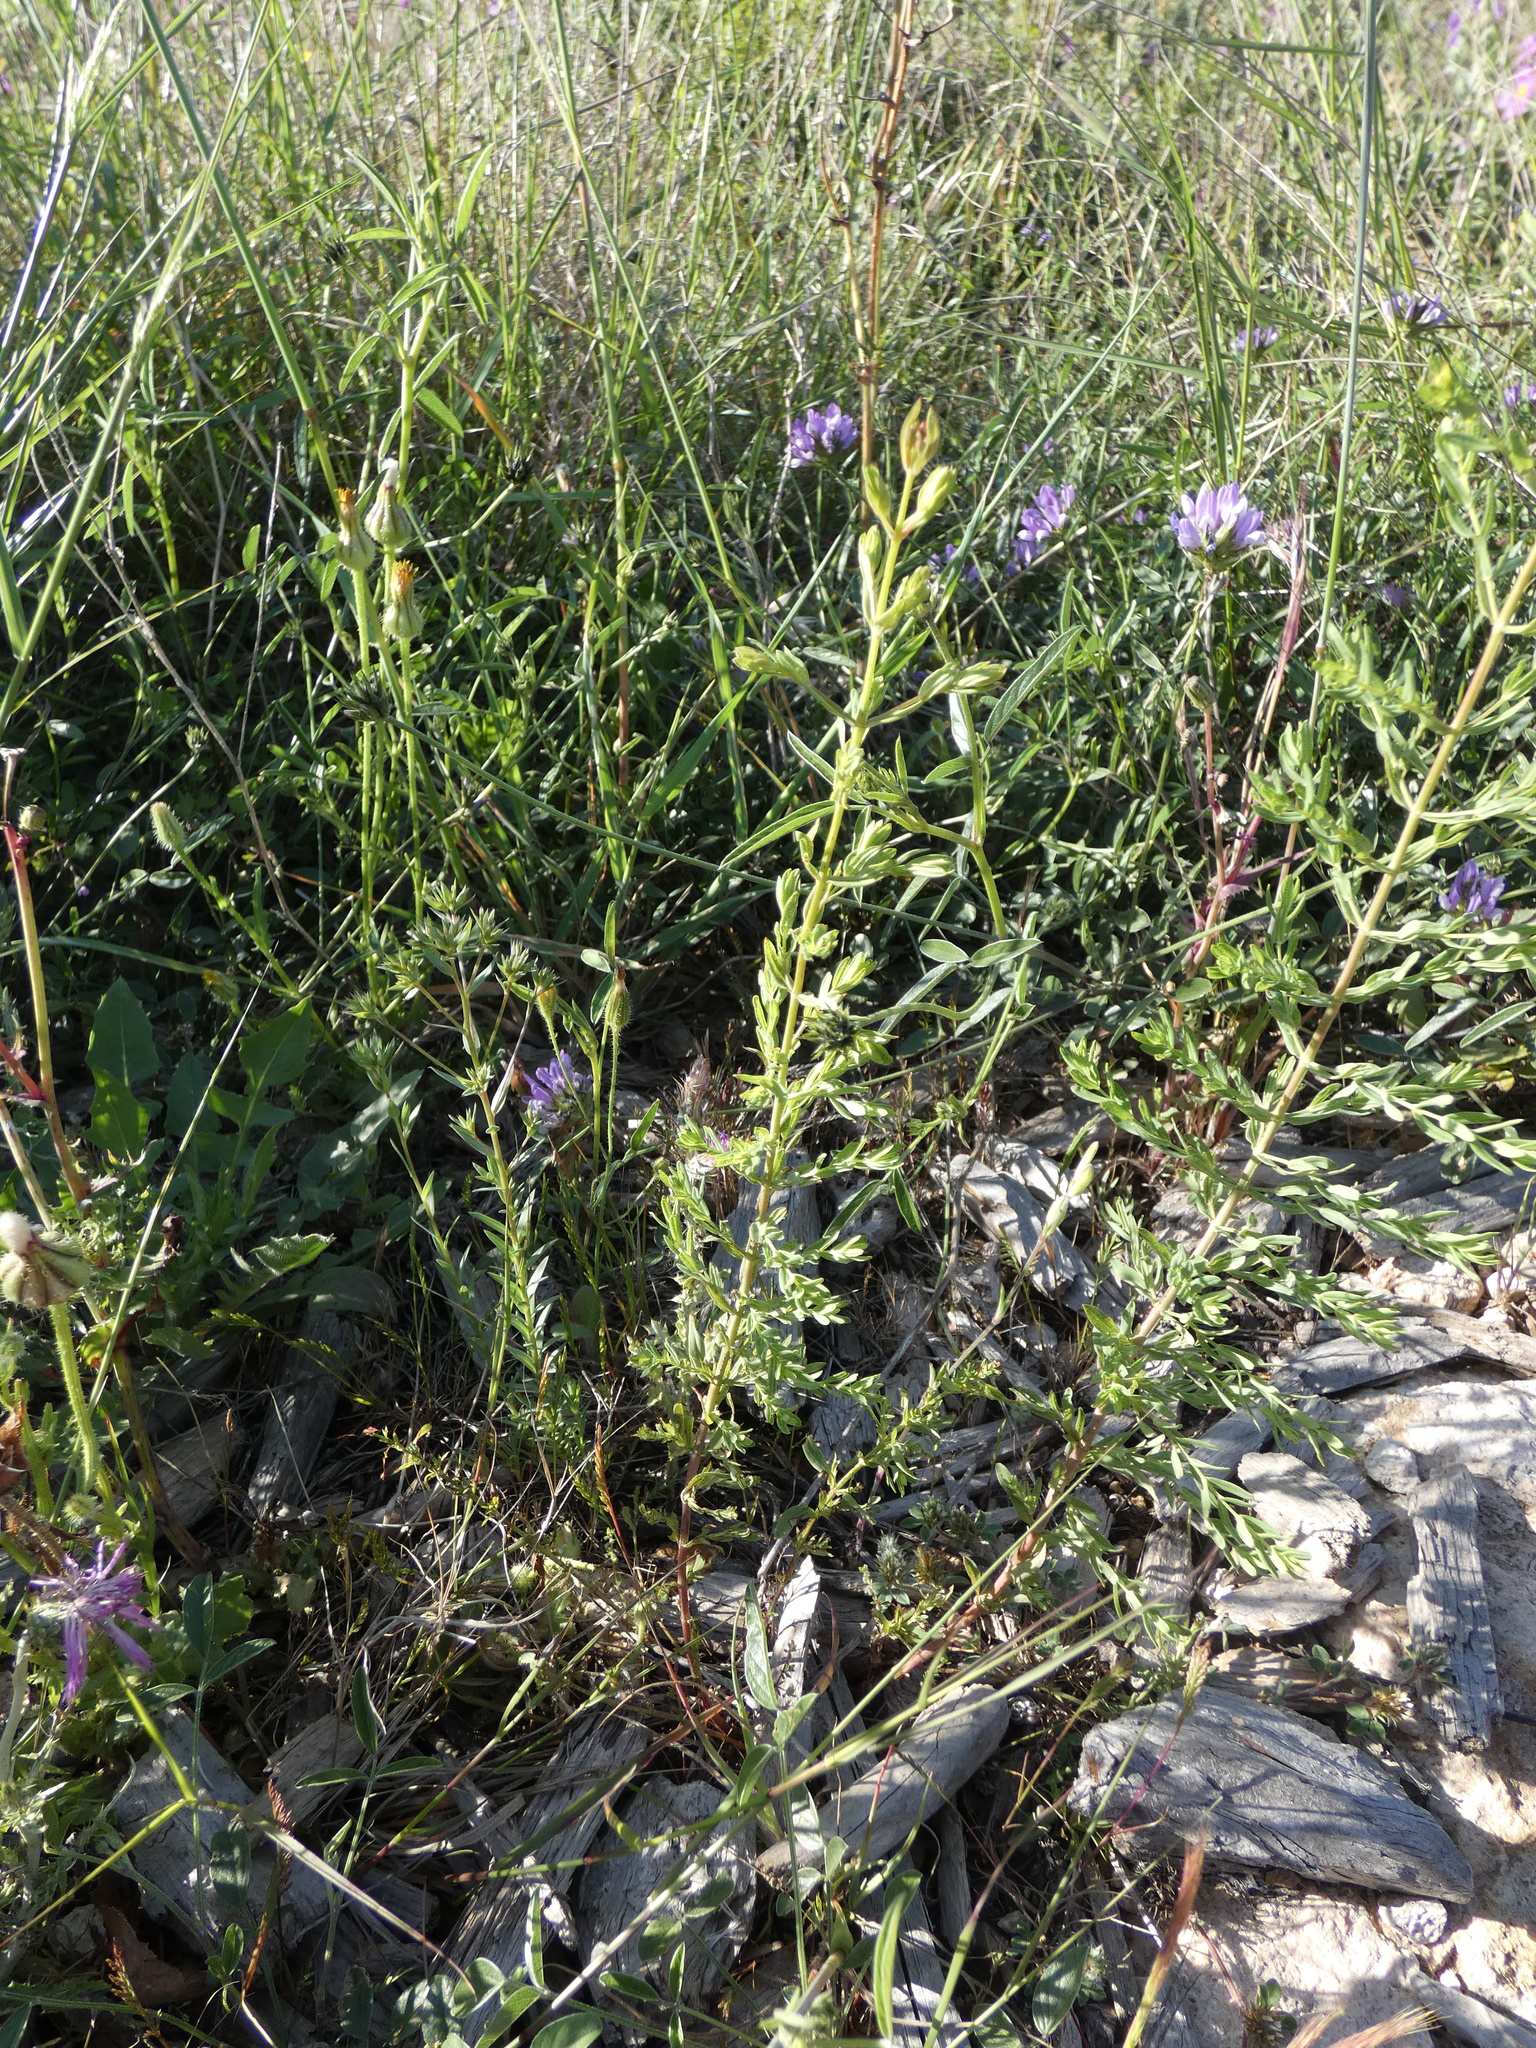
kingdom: Plantae
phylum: Tracheophyta
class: Magnoliopsida
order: Malpighiales
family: Hypericaceae
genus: Hypericum
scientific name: Hypericum perforatum
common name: Common st. johnswort
